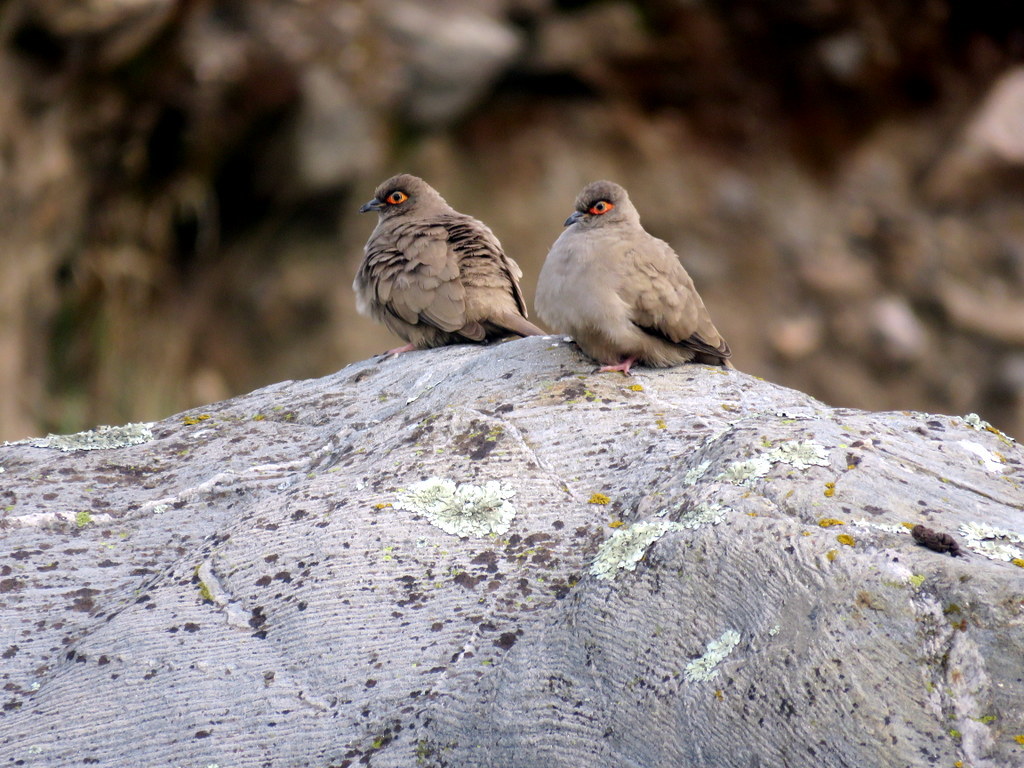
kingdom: Animalia
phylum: Chordata
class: Aves
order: Columbiformes
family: Columbidae
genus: Metriopelia
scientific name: Metriopelia morenoi
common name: Moreno's ground dove
